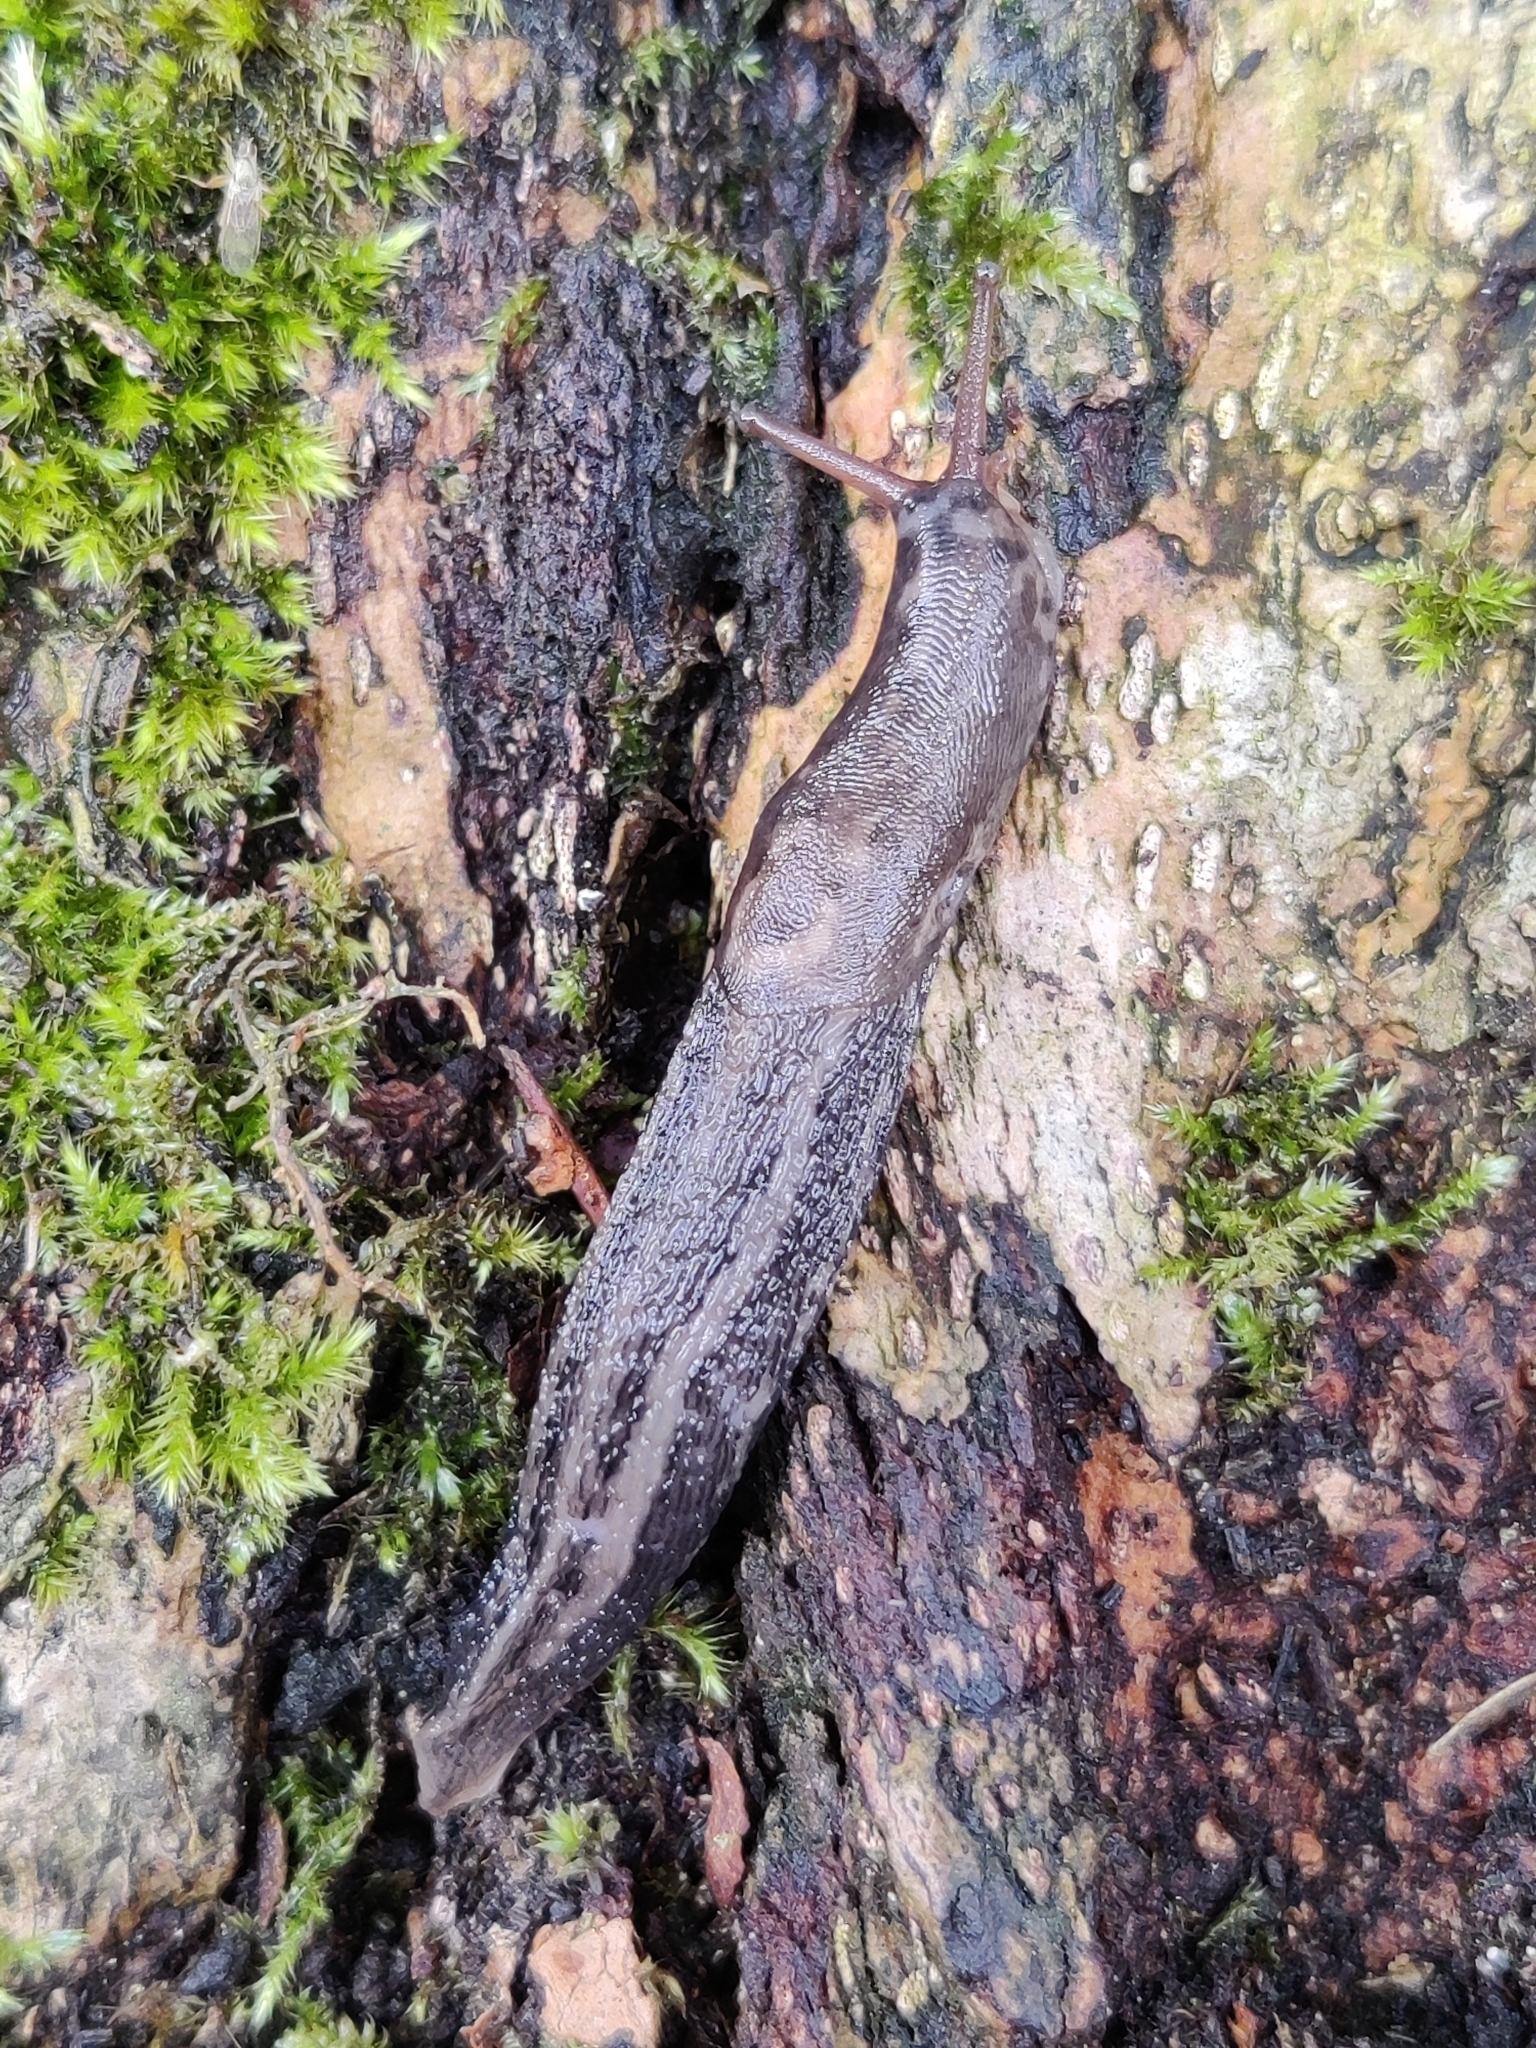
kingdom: Animalia
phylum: Mollusca
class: Gastropoda
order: Stylommatophora
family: Limacidae
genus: Limax
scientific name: Limax maximus
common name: Great grey slug
